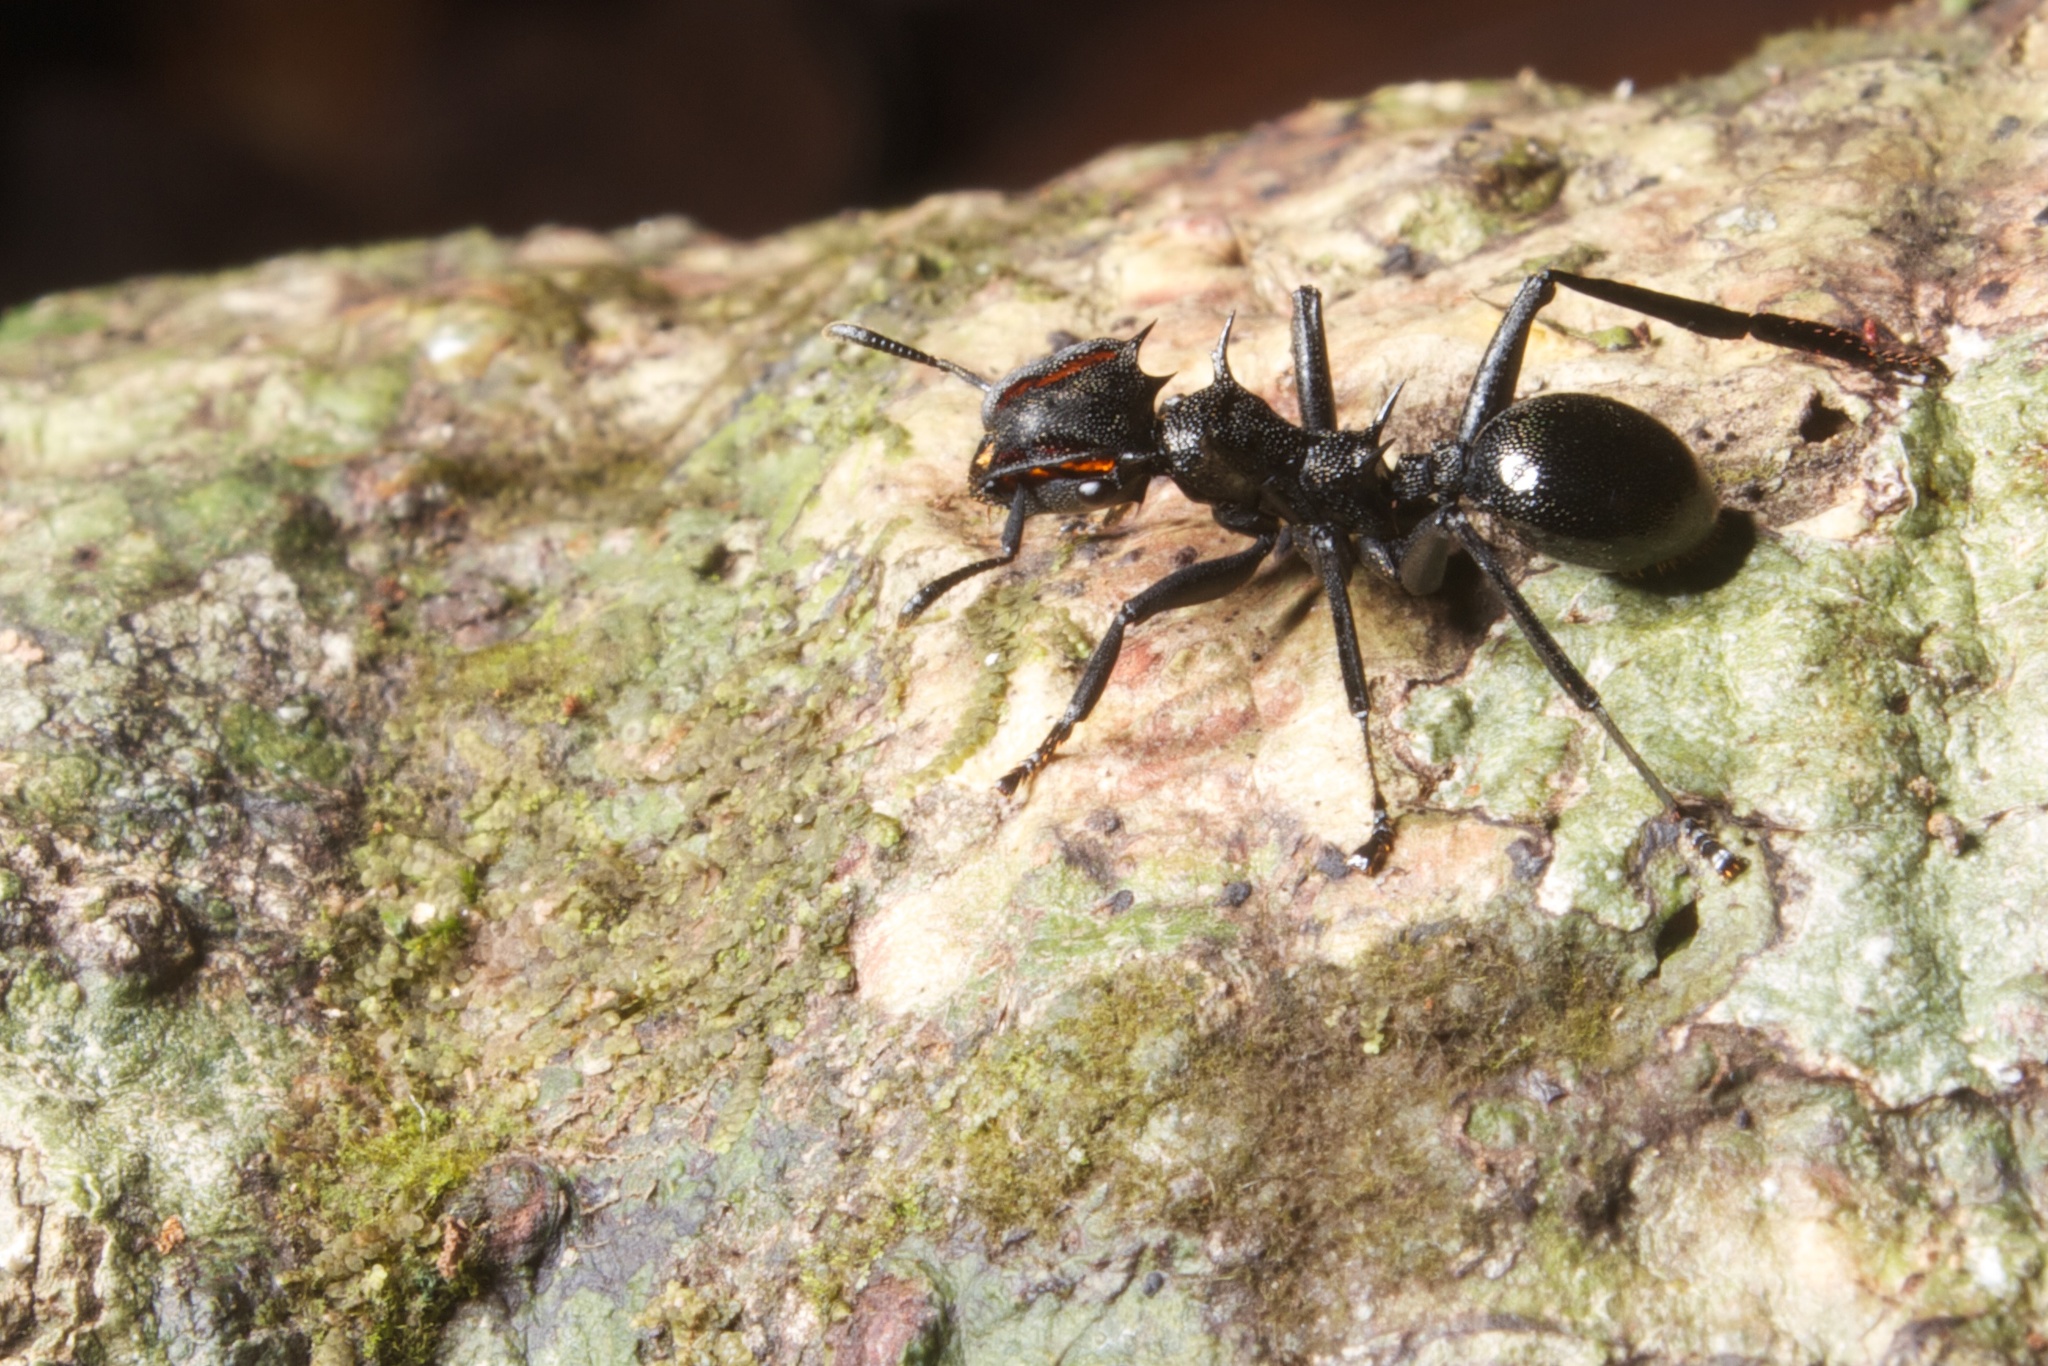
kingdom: Animalia
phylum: Arthropoda
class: Insecta
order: Hymenoptera
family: Formicidae
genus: Cephalotes
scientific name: Cephalotes atratus
